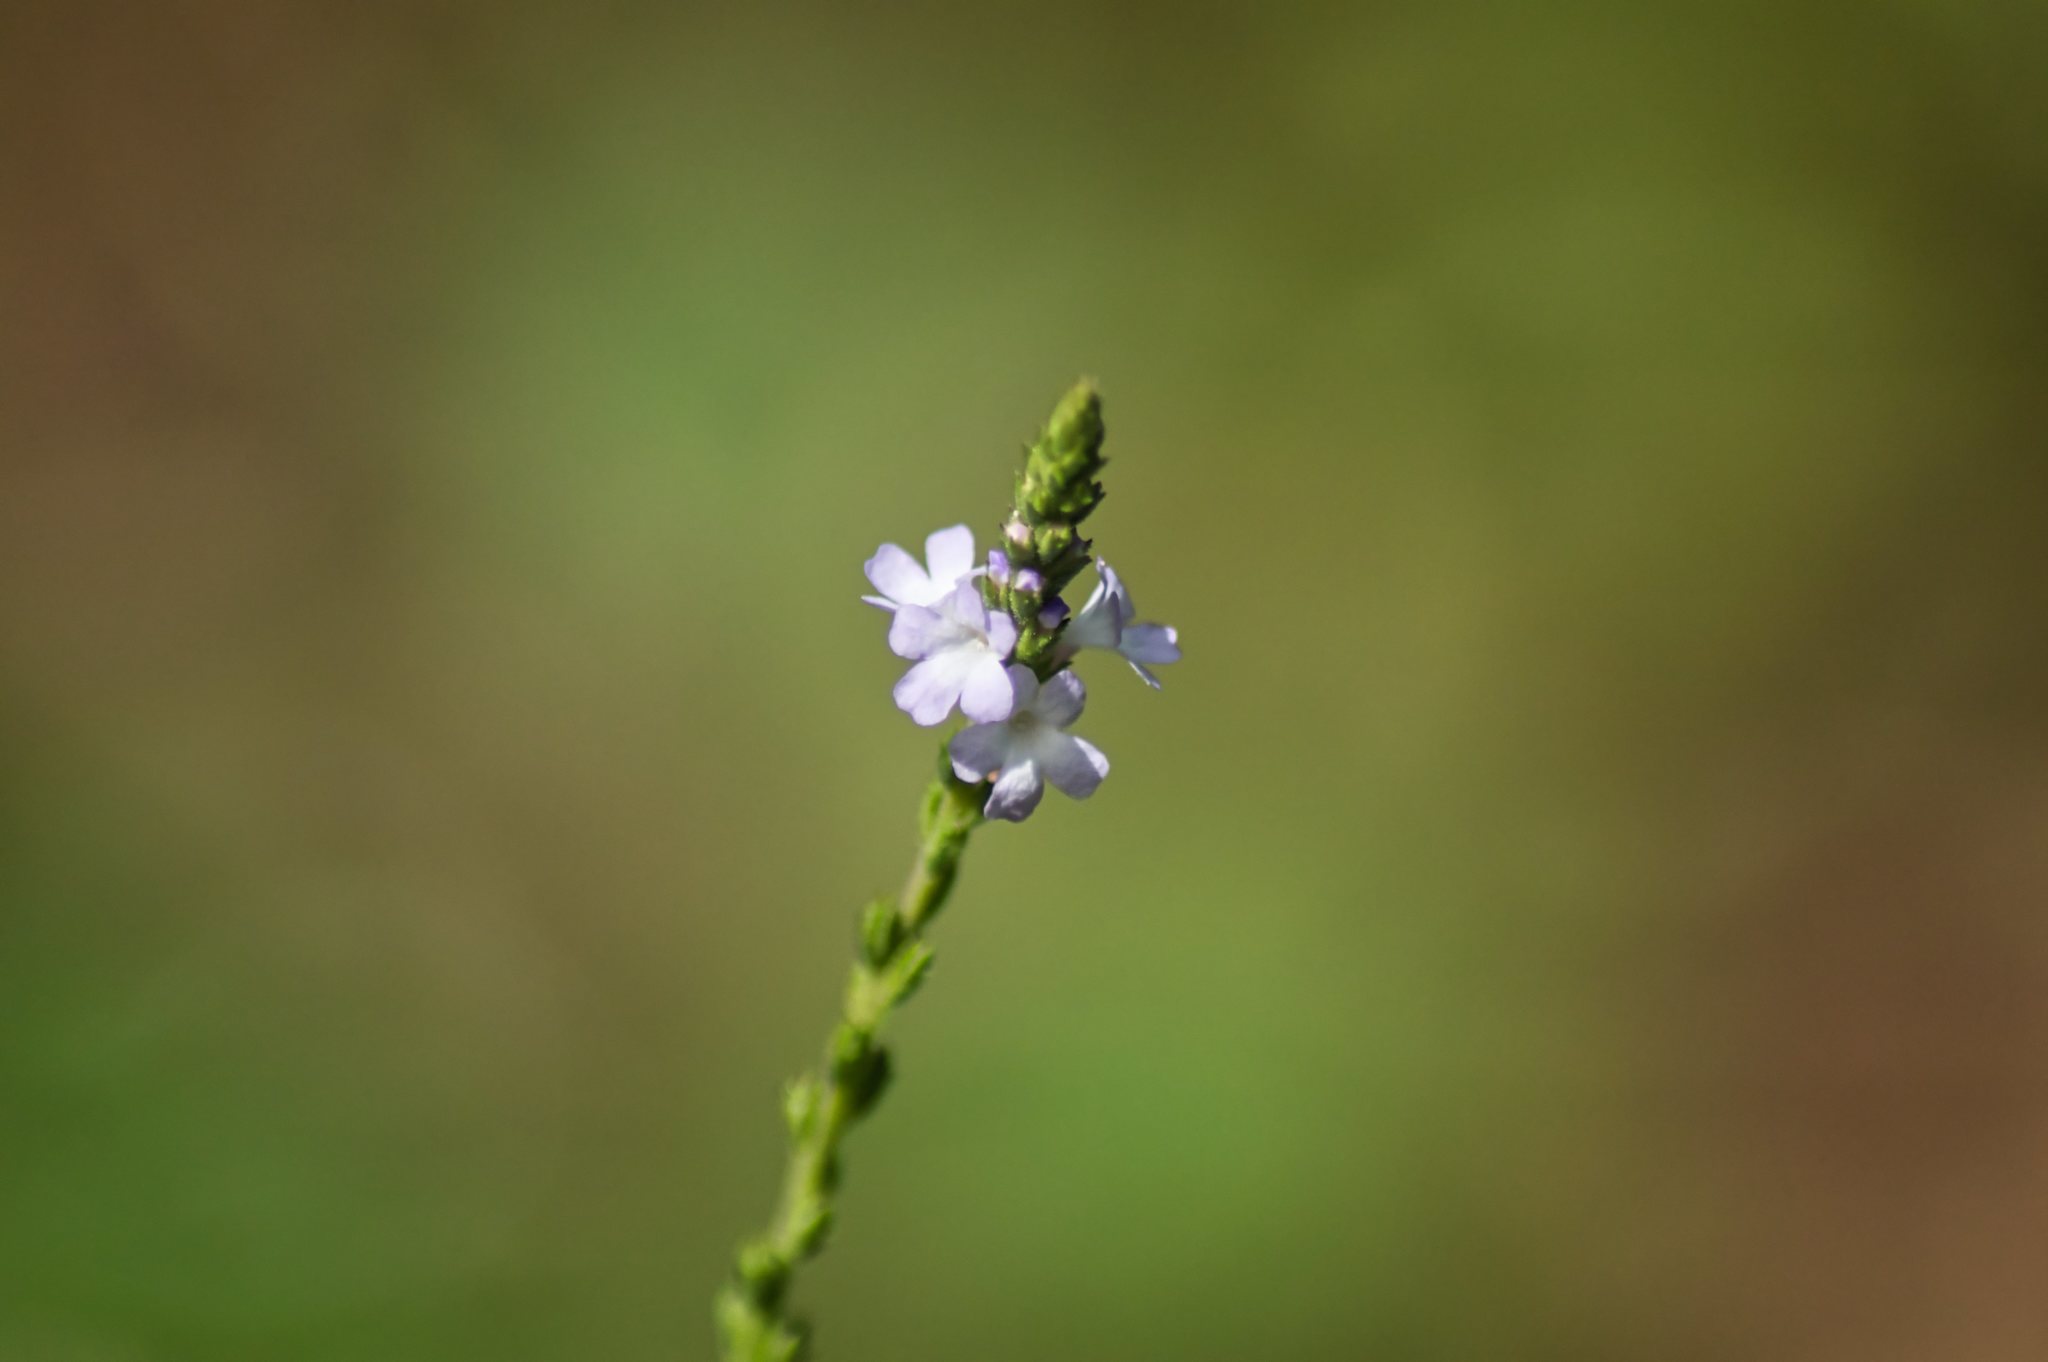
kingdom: Plantae
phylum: Tracheophyta
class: Magnoliopsida
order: Lamiales
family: Verbenaceae
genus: Verbena
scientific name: Verbena officinalis
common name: Vervain
